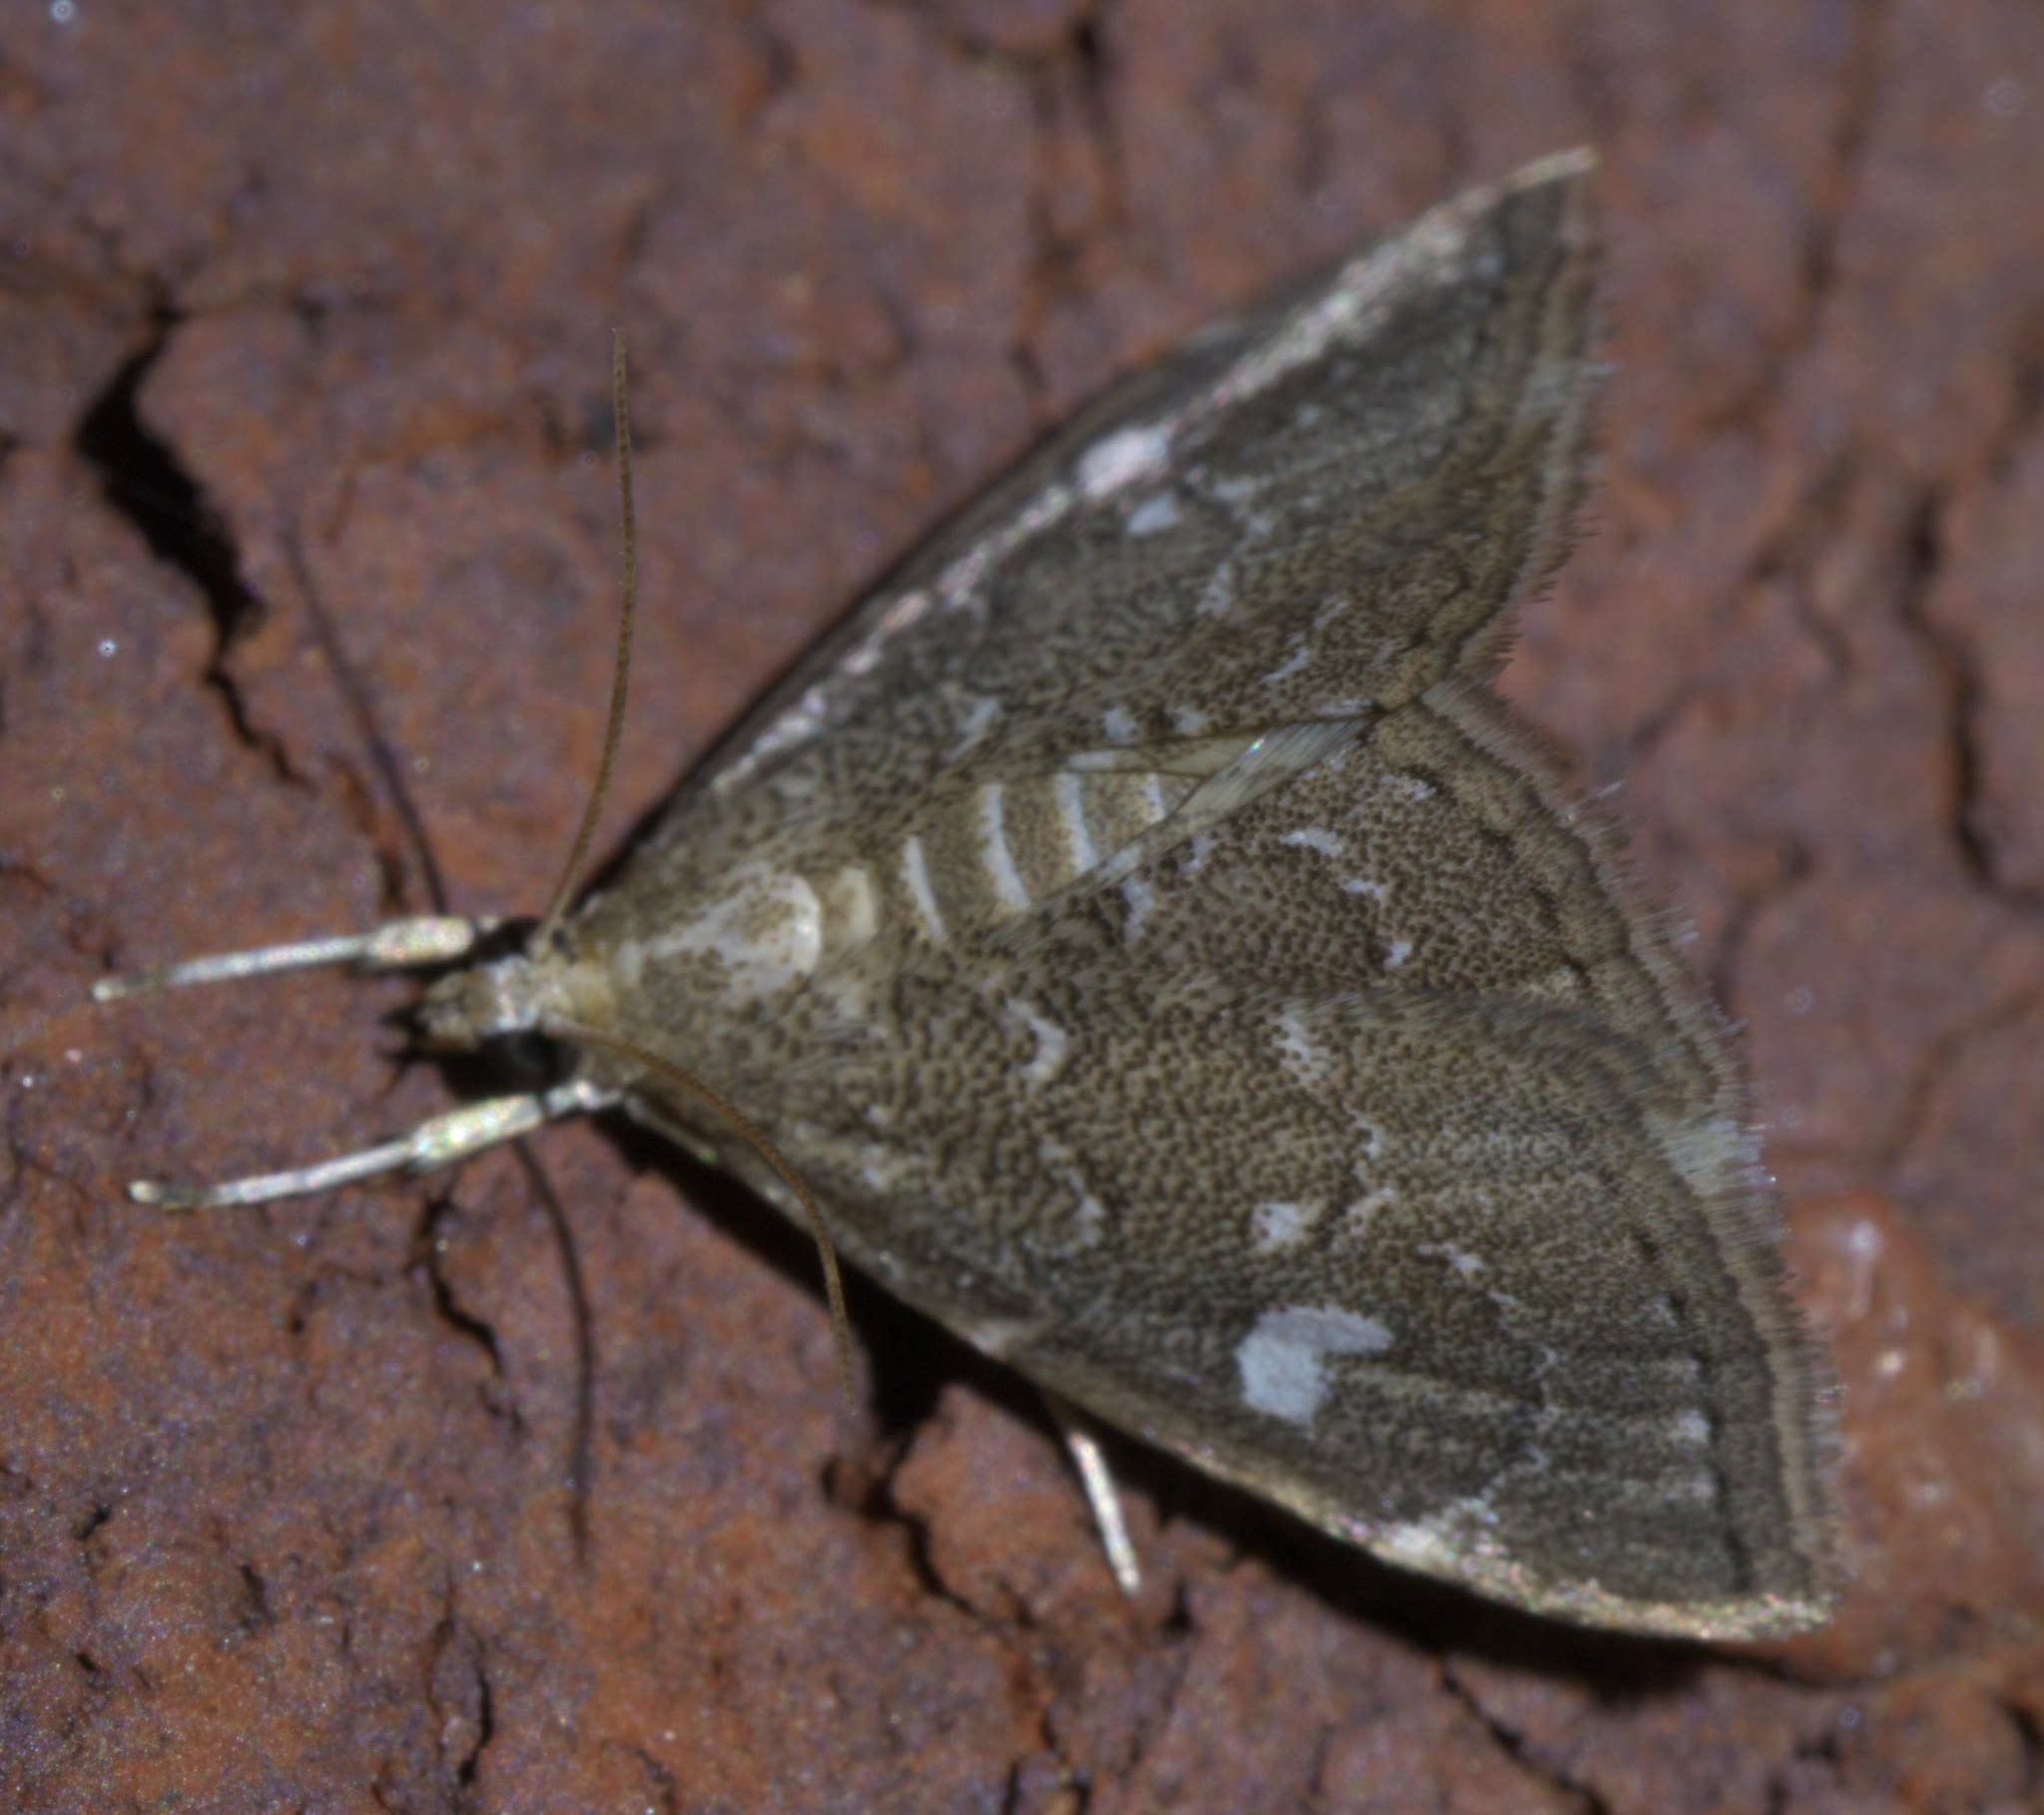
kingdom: Animalia
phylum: Arthropoda
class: Insecta
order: Lepidoptera
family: Crambidae
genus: Nephrogramma
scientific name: Nephrogramma reniculalis
